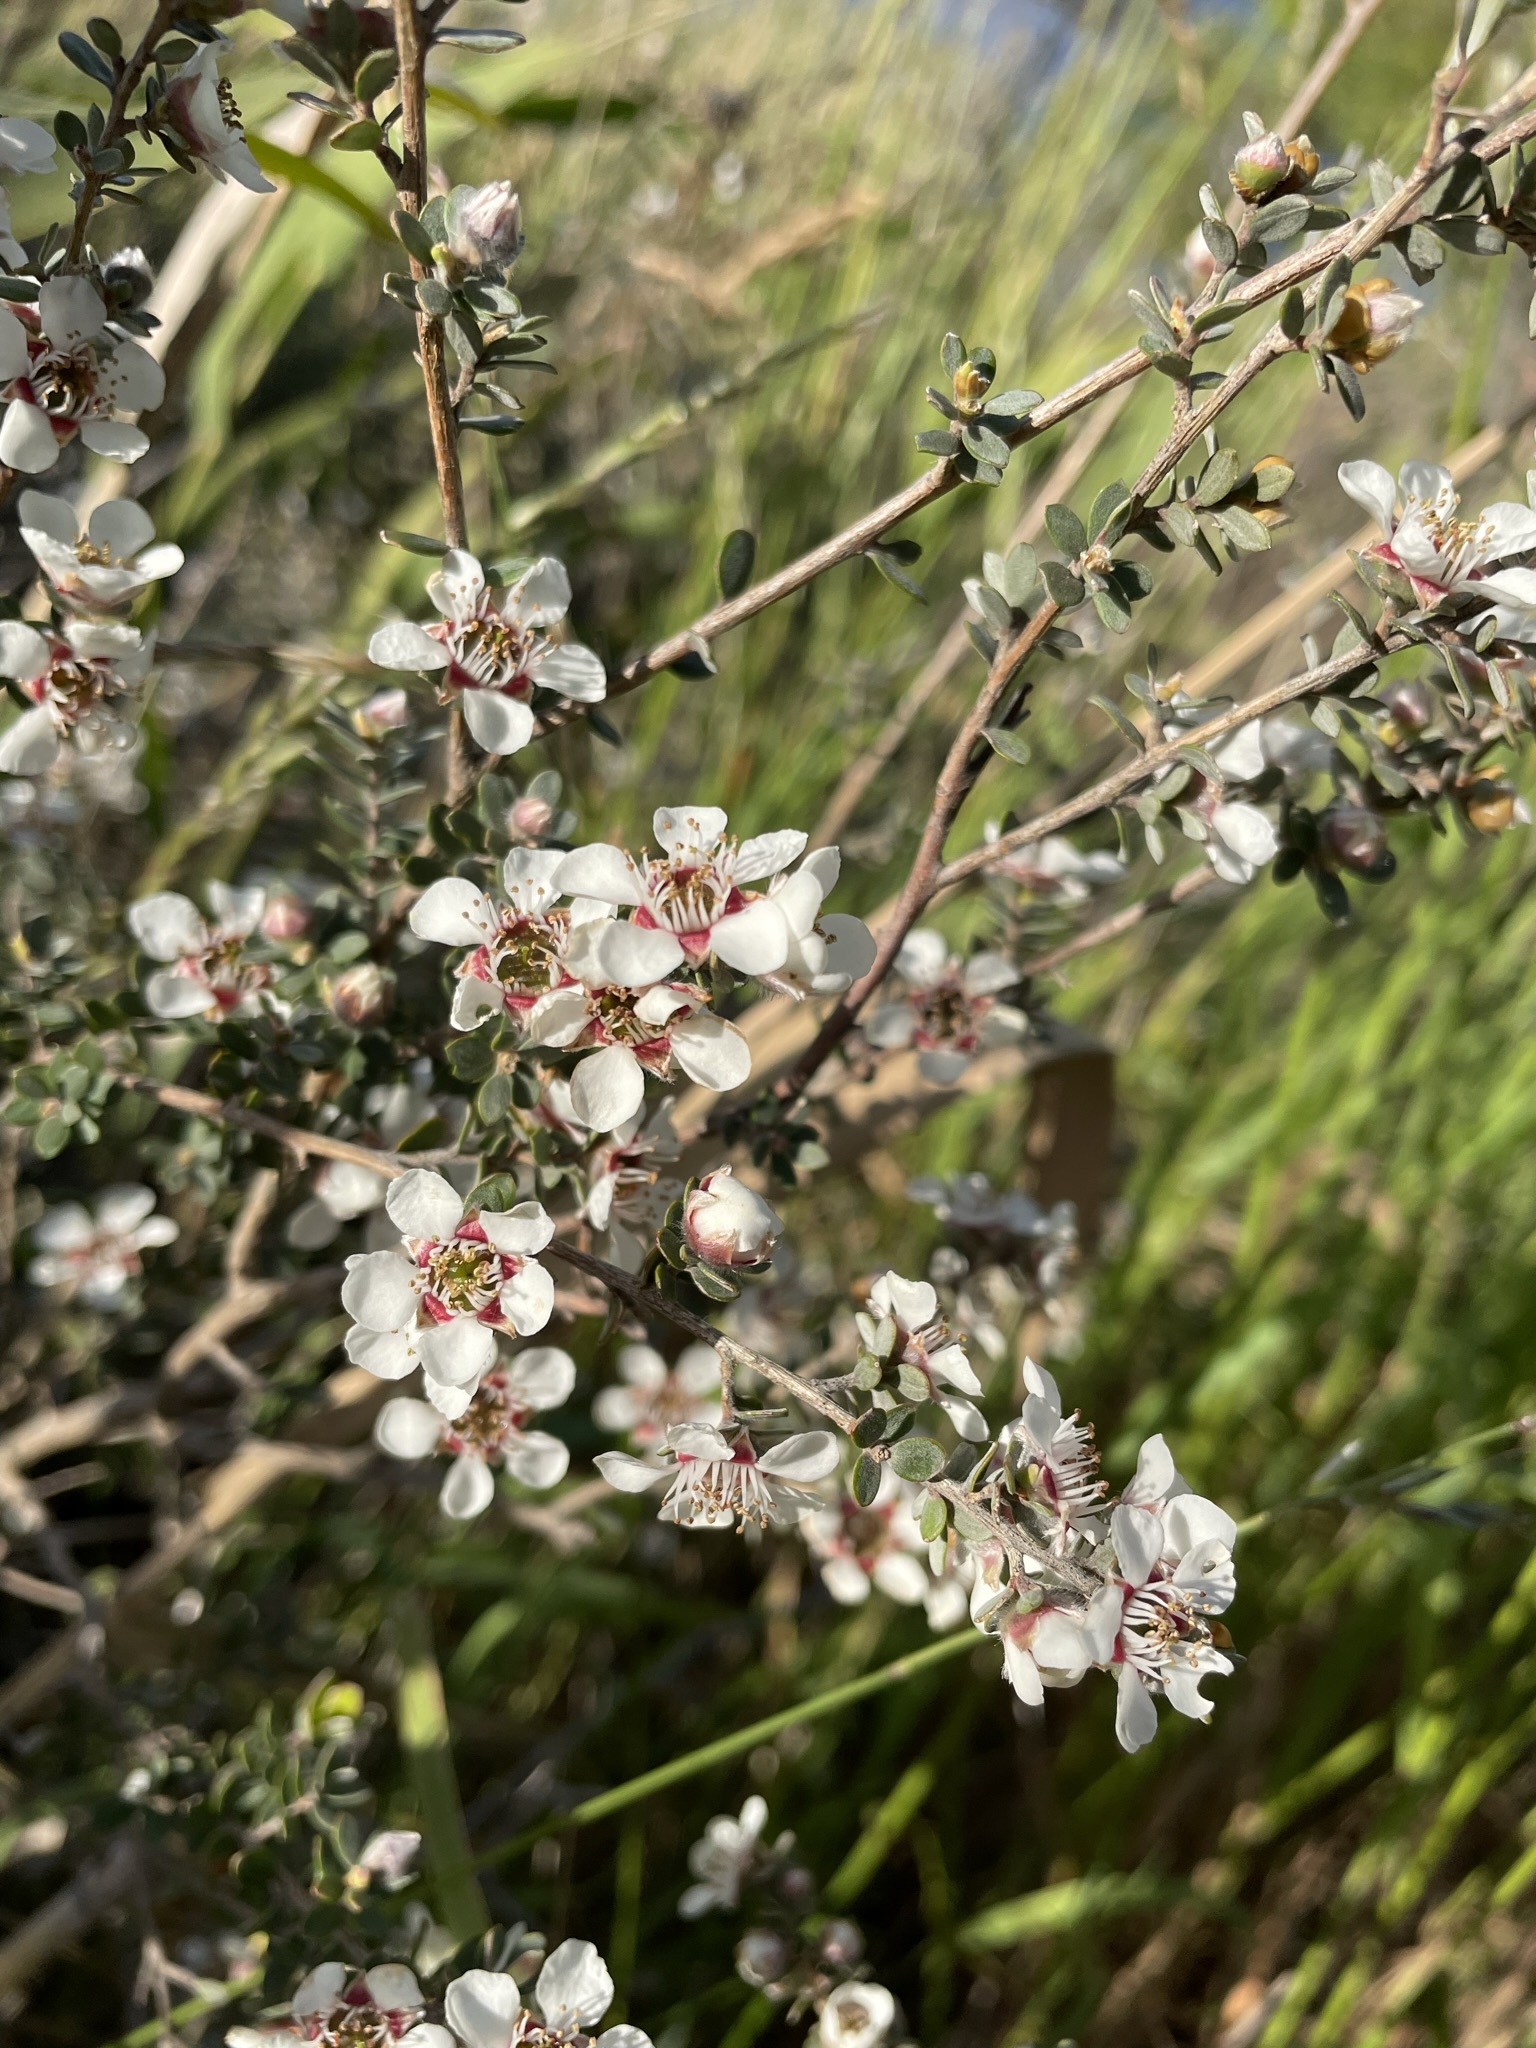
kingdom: Plantae
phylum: Tracheophyta
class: Magnoliopsida
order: Myrtales
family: Myrtaceae
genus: Leptospermum
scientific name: Leptospermum lanigerum
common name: Woolly tea-tree
